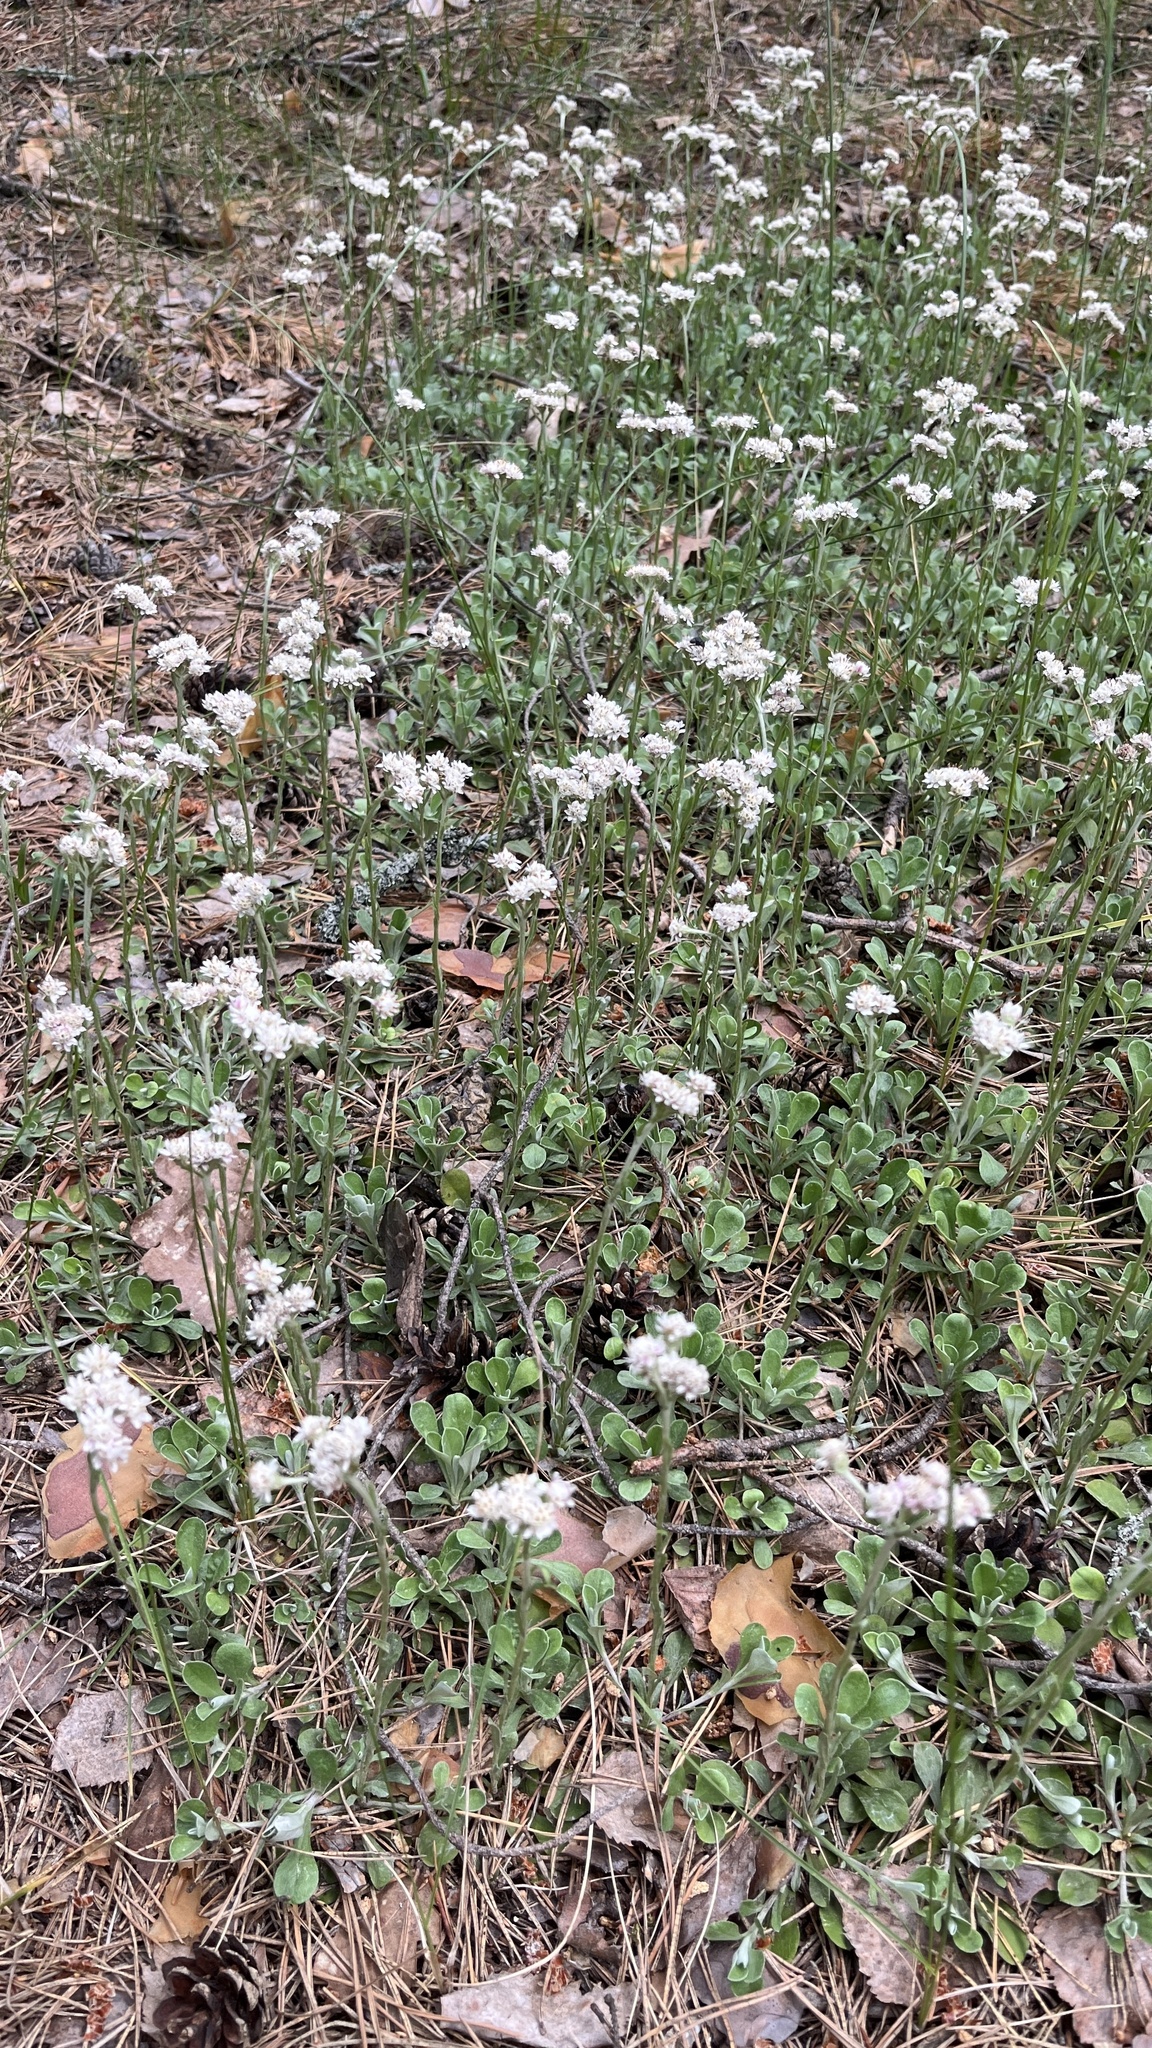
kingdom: Plantae
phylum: Tracheophyta
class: Magnoliopsida
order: Asterales
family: Asteraceae
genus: Antennaria
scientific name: Antennaria dioica
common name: Mountain everlasting
